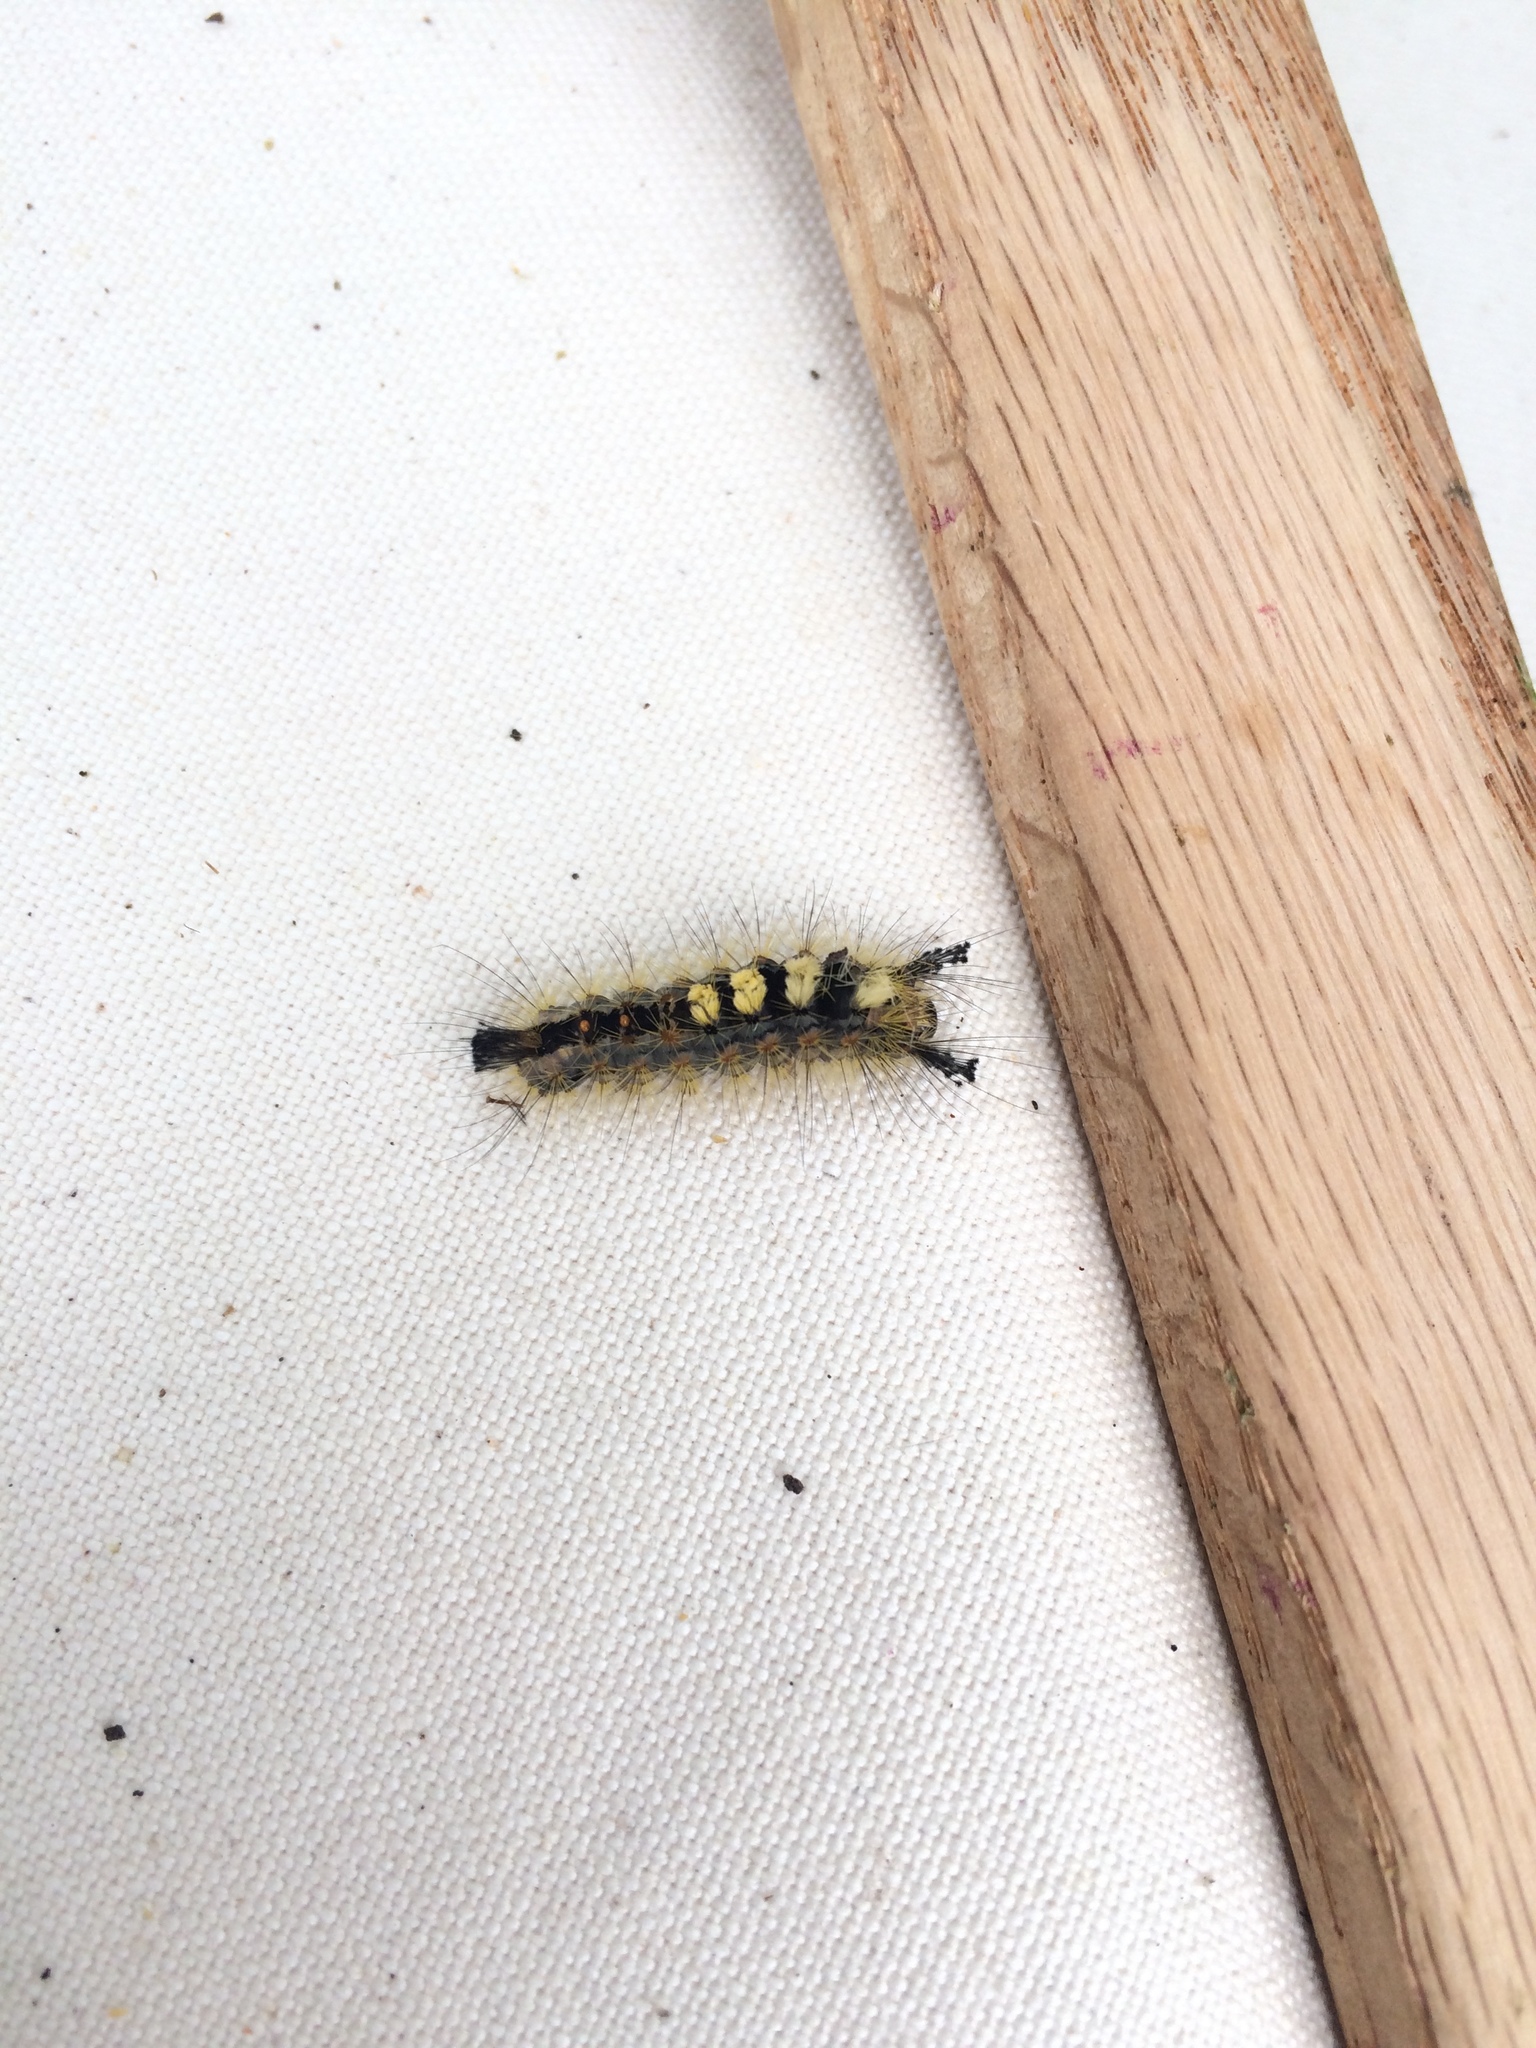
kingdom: Animalia
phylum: Arthropoda
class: Insecta
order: Lepidoptera
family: Erebidae
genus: Orgyia
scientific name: Orgyia antiqua
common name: Vapourer
